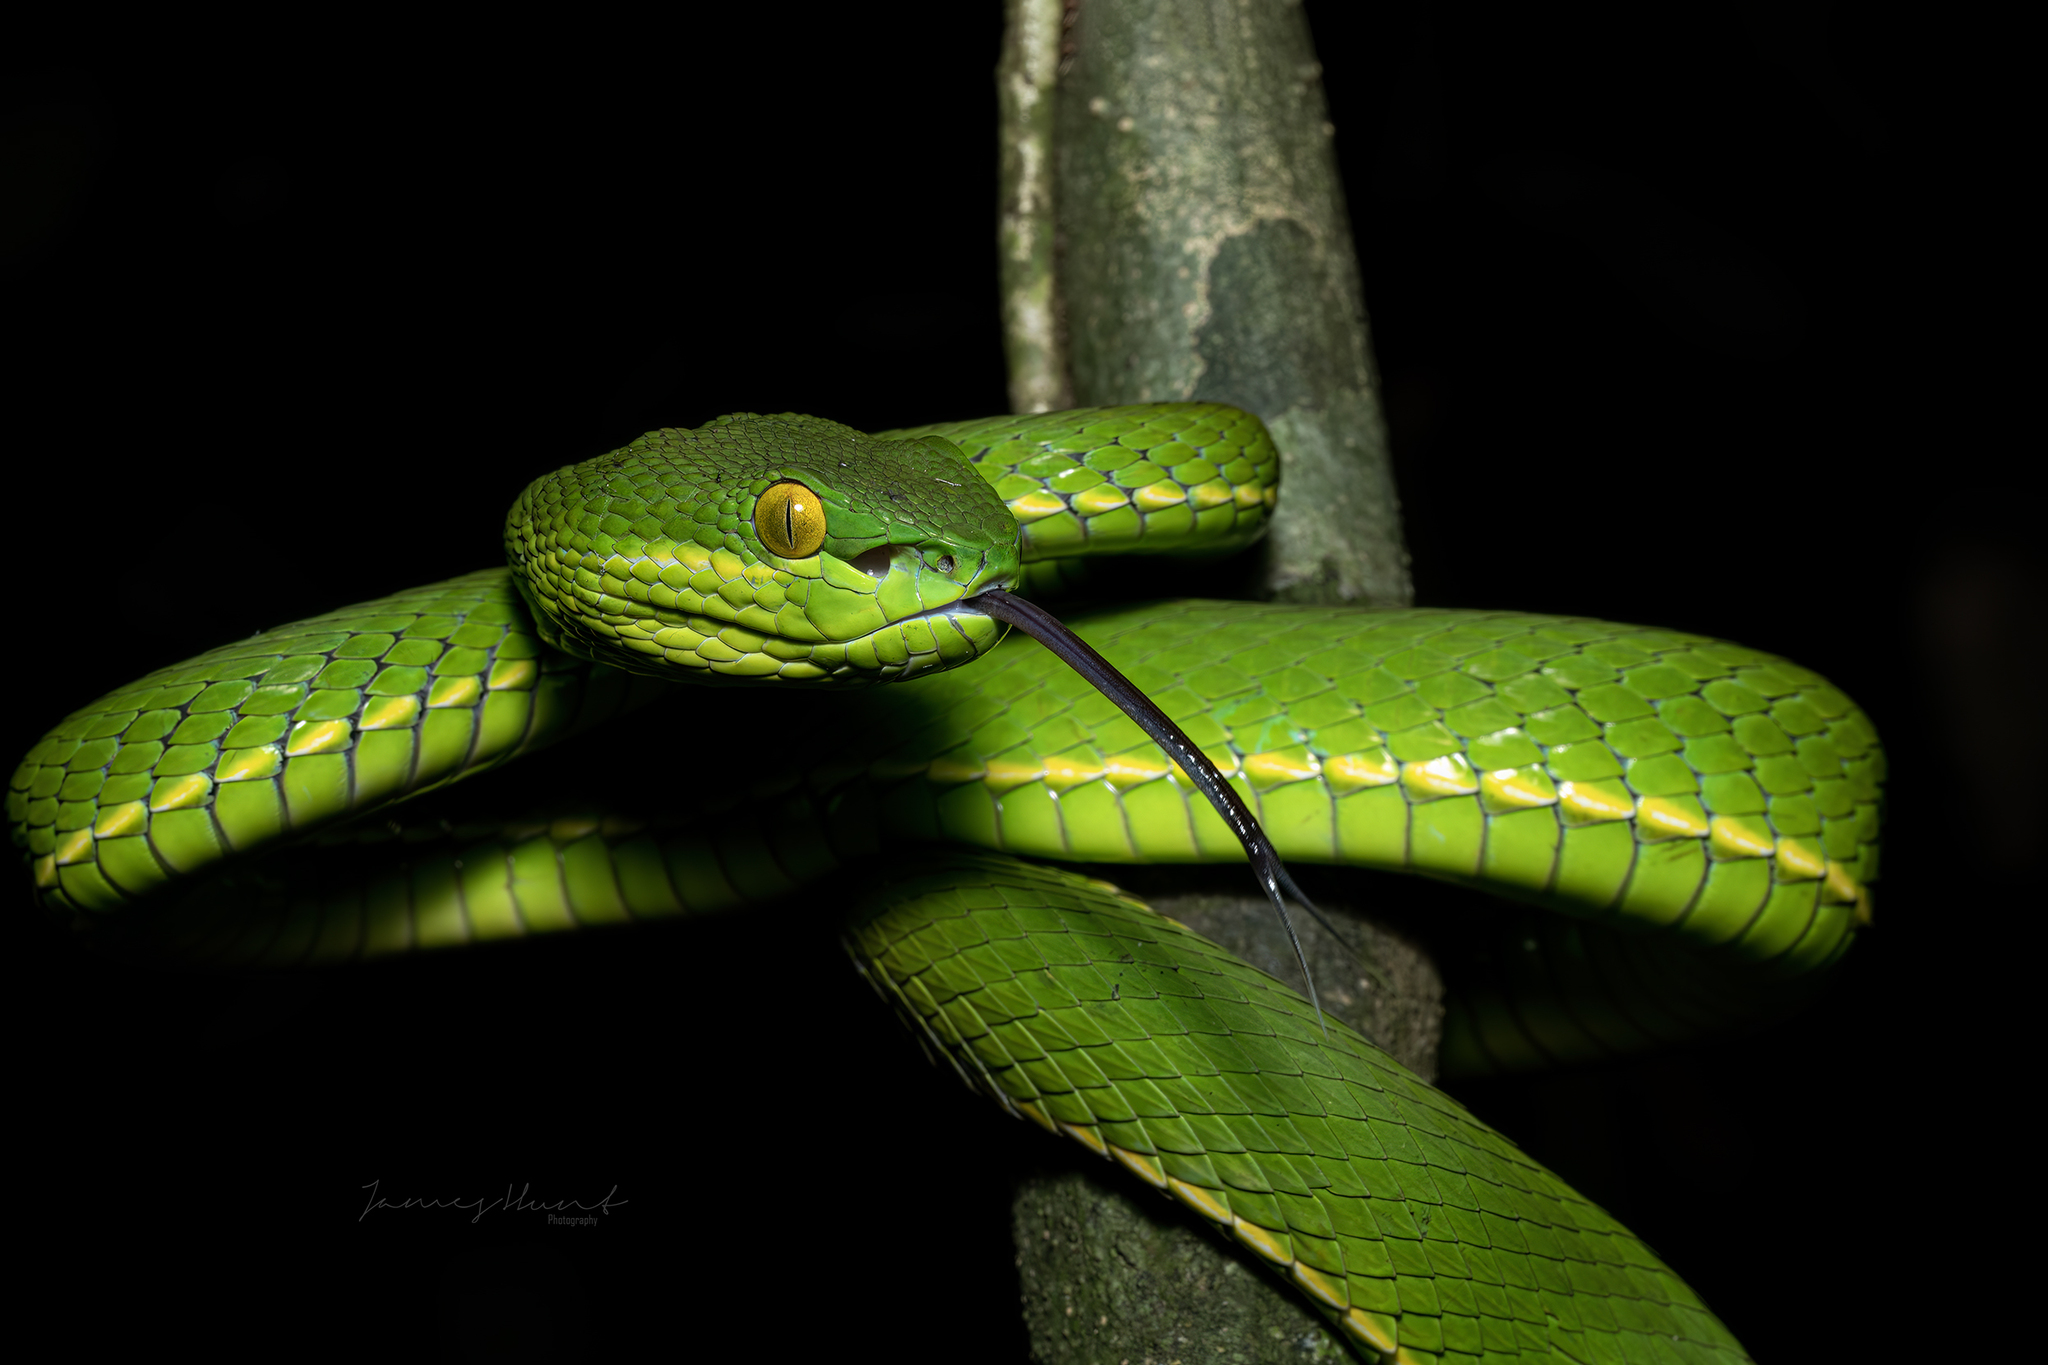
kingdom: Animalia
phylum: Chordata
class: Squamata
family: Viperidae
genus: Trimeresurus
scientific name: Trimeresurus albolabris
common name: White-lipped pitviper
